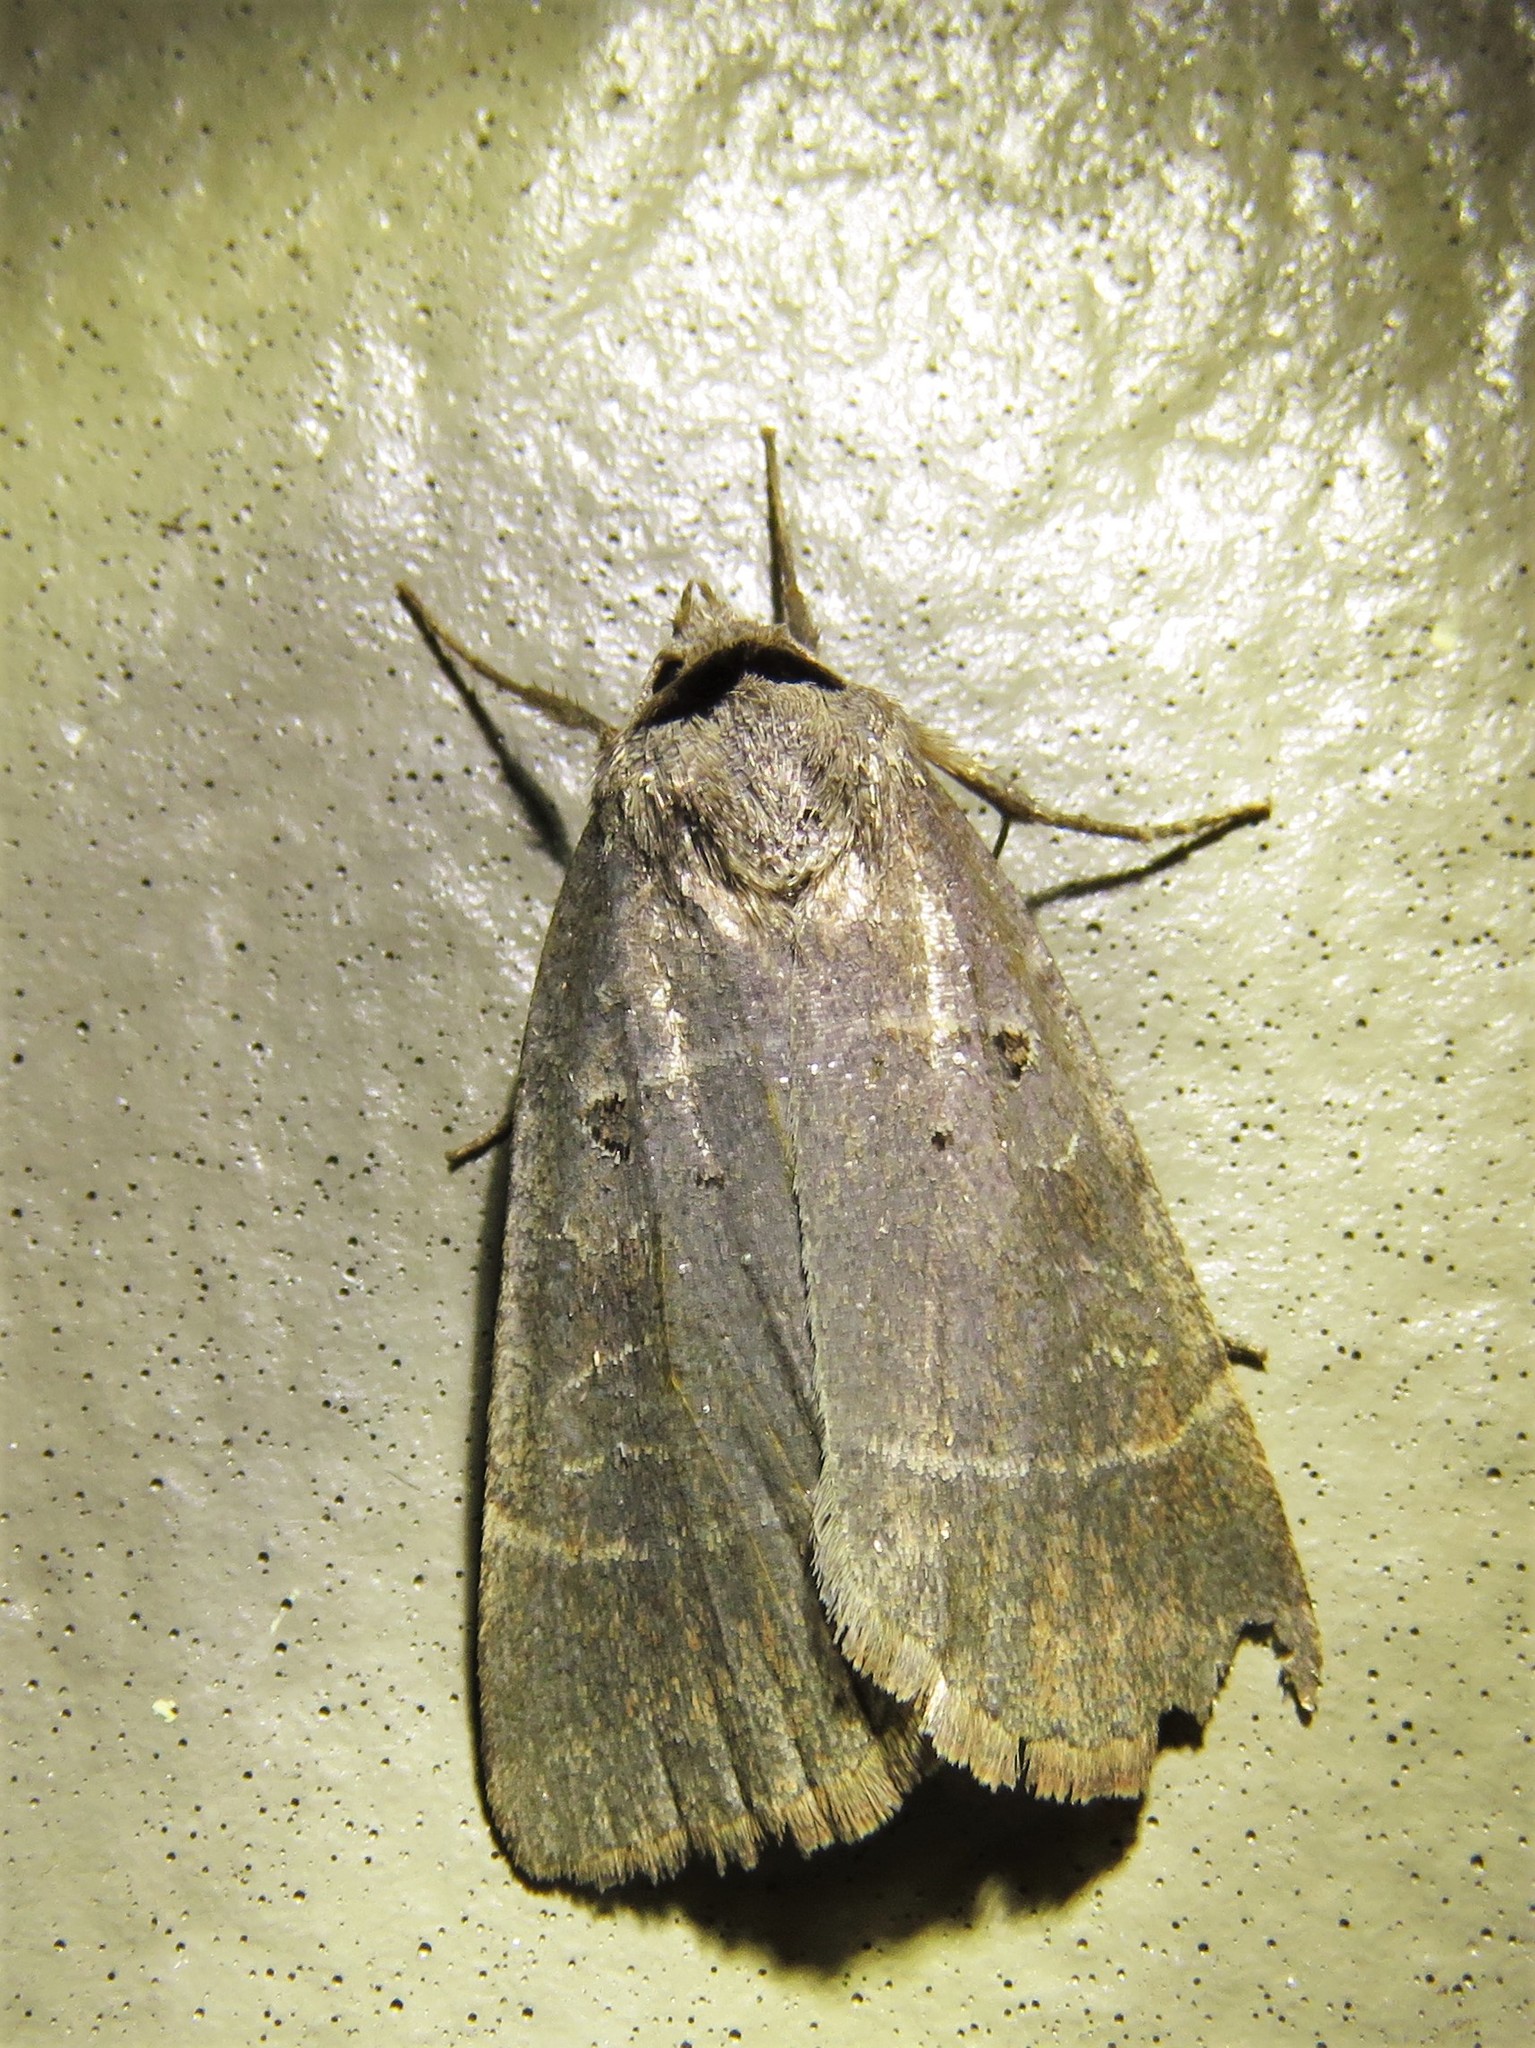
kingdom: Animalia
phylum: Arthropoda
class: Insecta
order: Lepidoptera
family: Noctuidae
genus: Agnorisma
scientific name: Agnorisma badinodis
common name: Pale-banded dart
